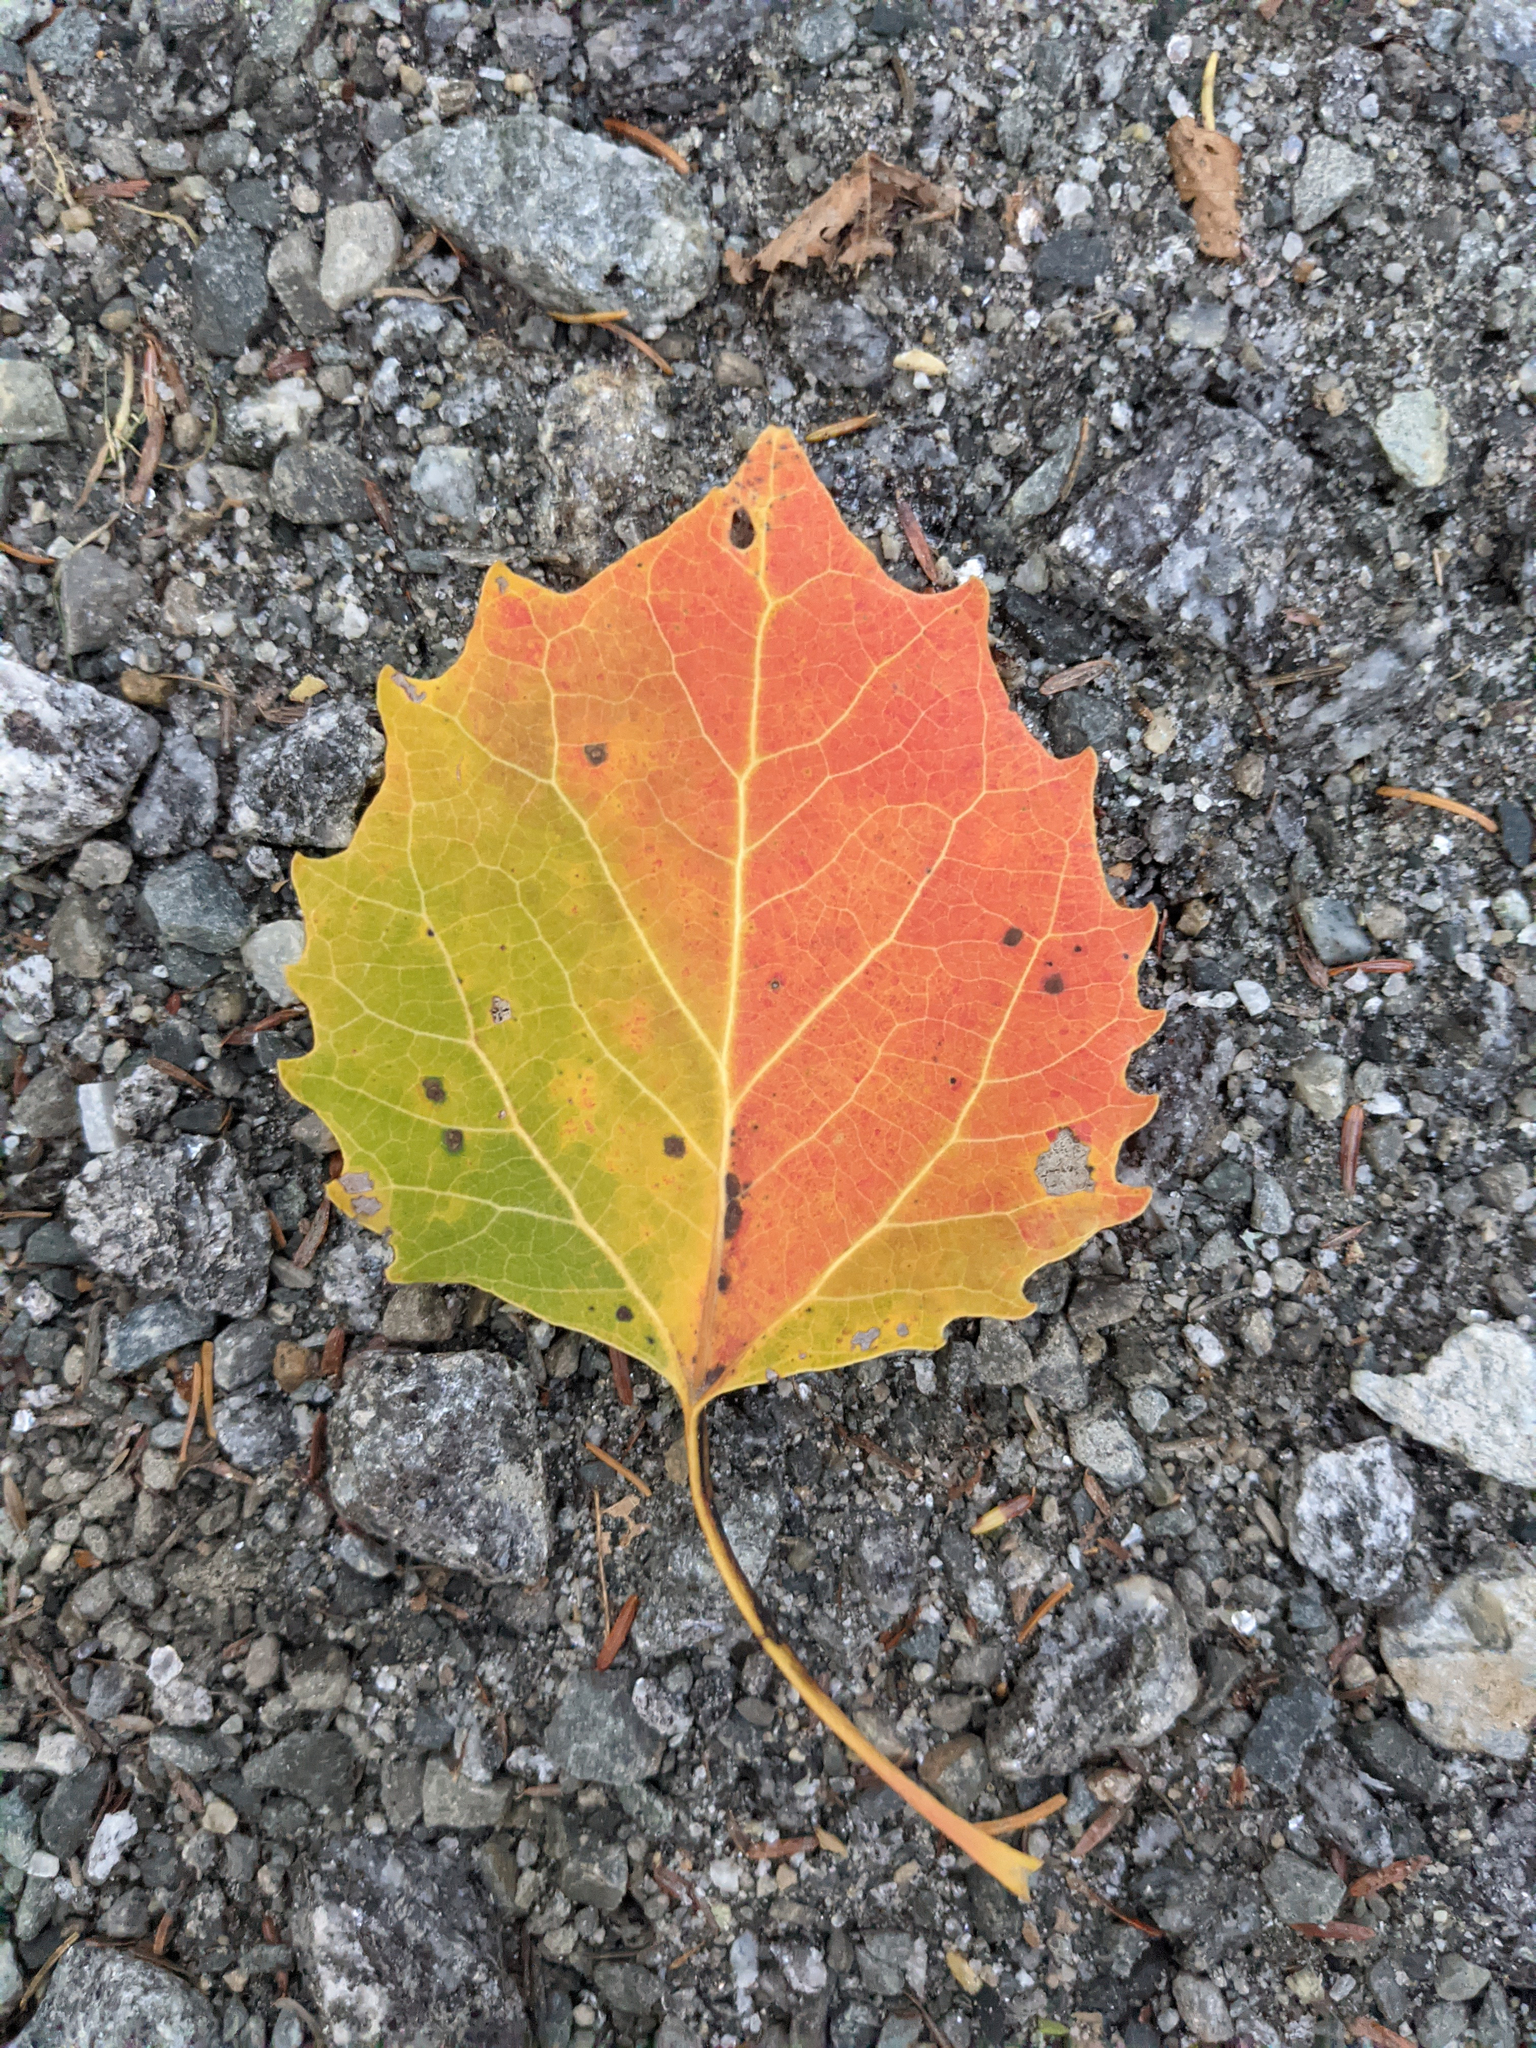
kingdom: Plantae
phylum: Tracheophyta
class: Magnoliopsida
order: Malpighiales
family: Salicaceae
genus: Populus
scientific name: Populus grandidentata
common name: Bigtooth aspen
